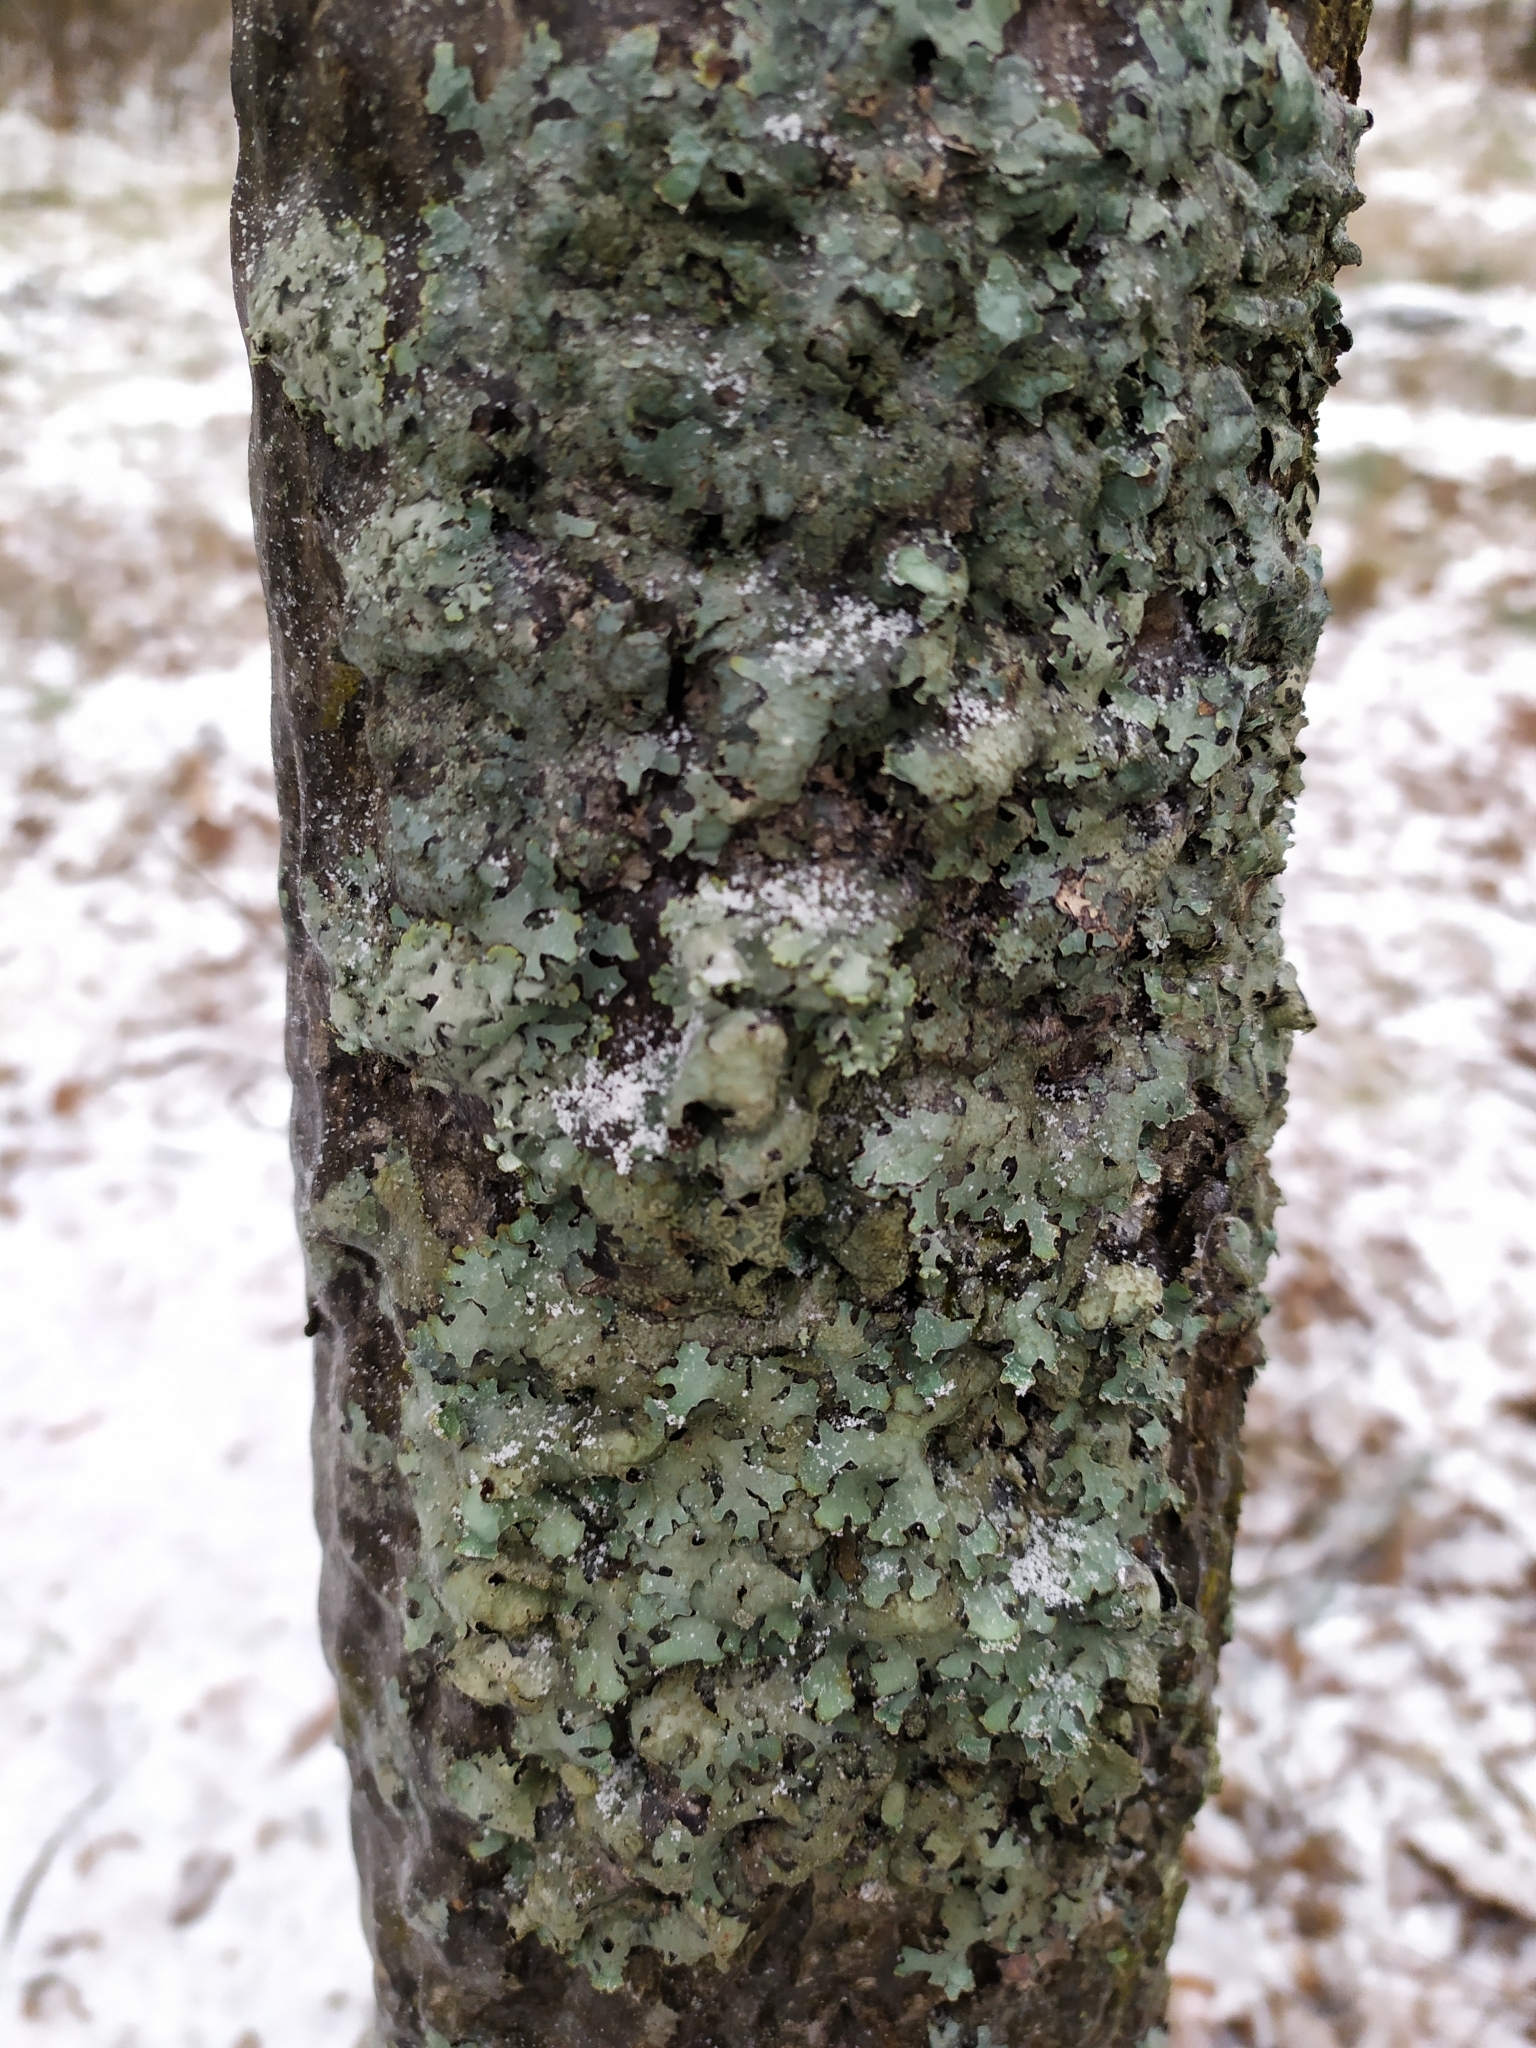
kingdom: Fungi
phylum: Ascomycota
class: Lecanoromycetes
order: Lecanorales
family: Parmeliaceae
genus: Parmelia
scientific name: Parmelia sulcata
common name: Netted shield lichen
